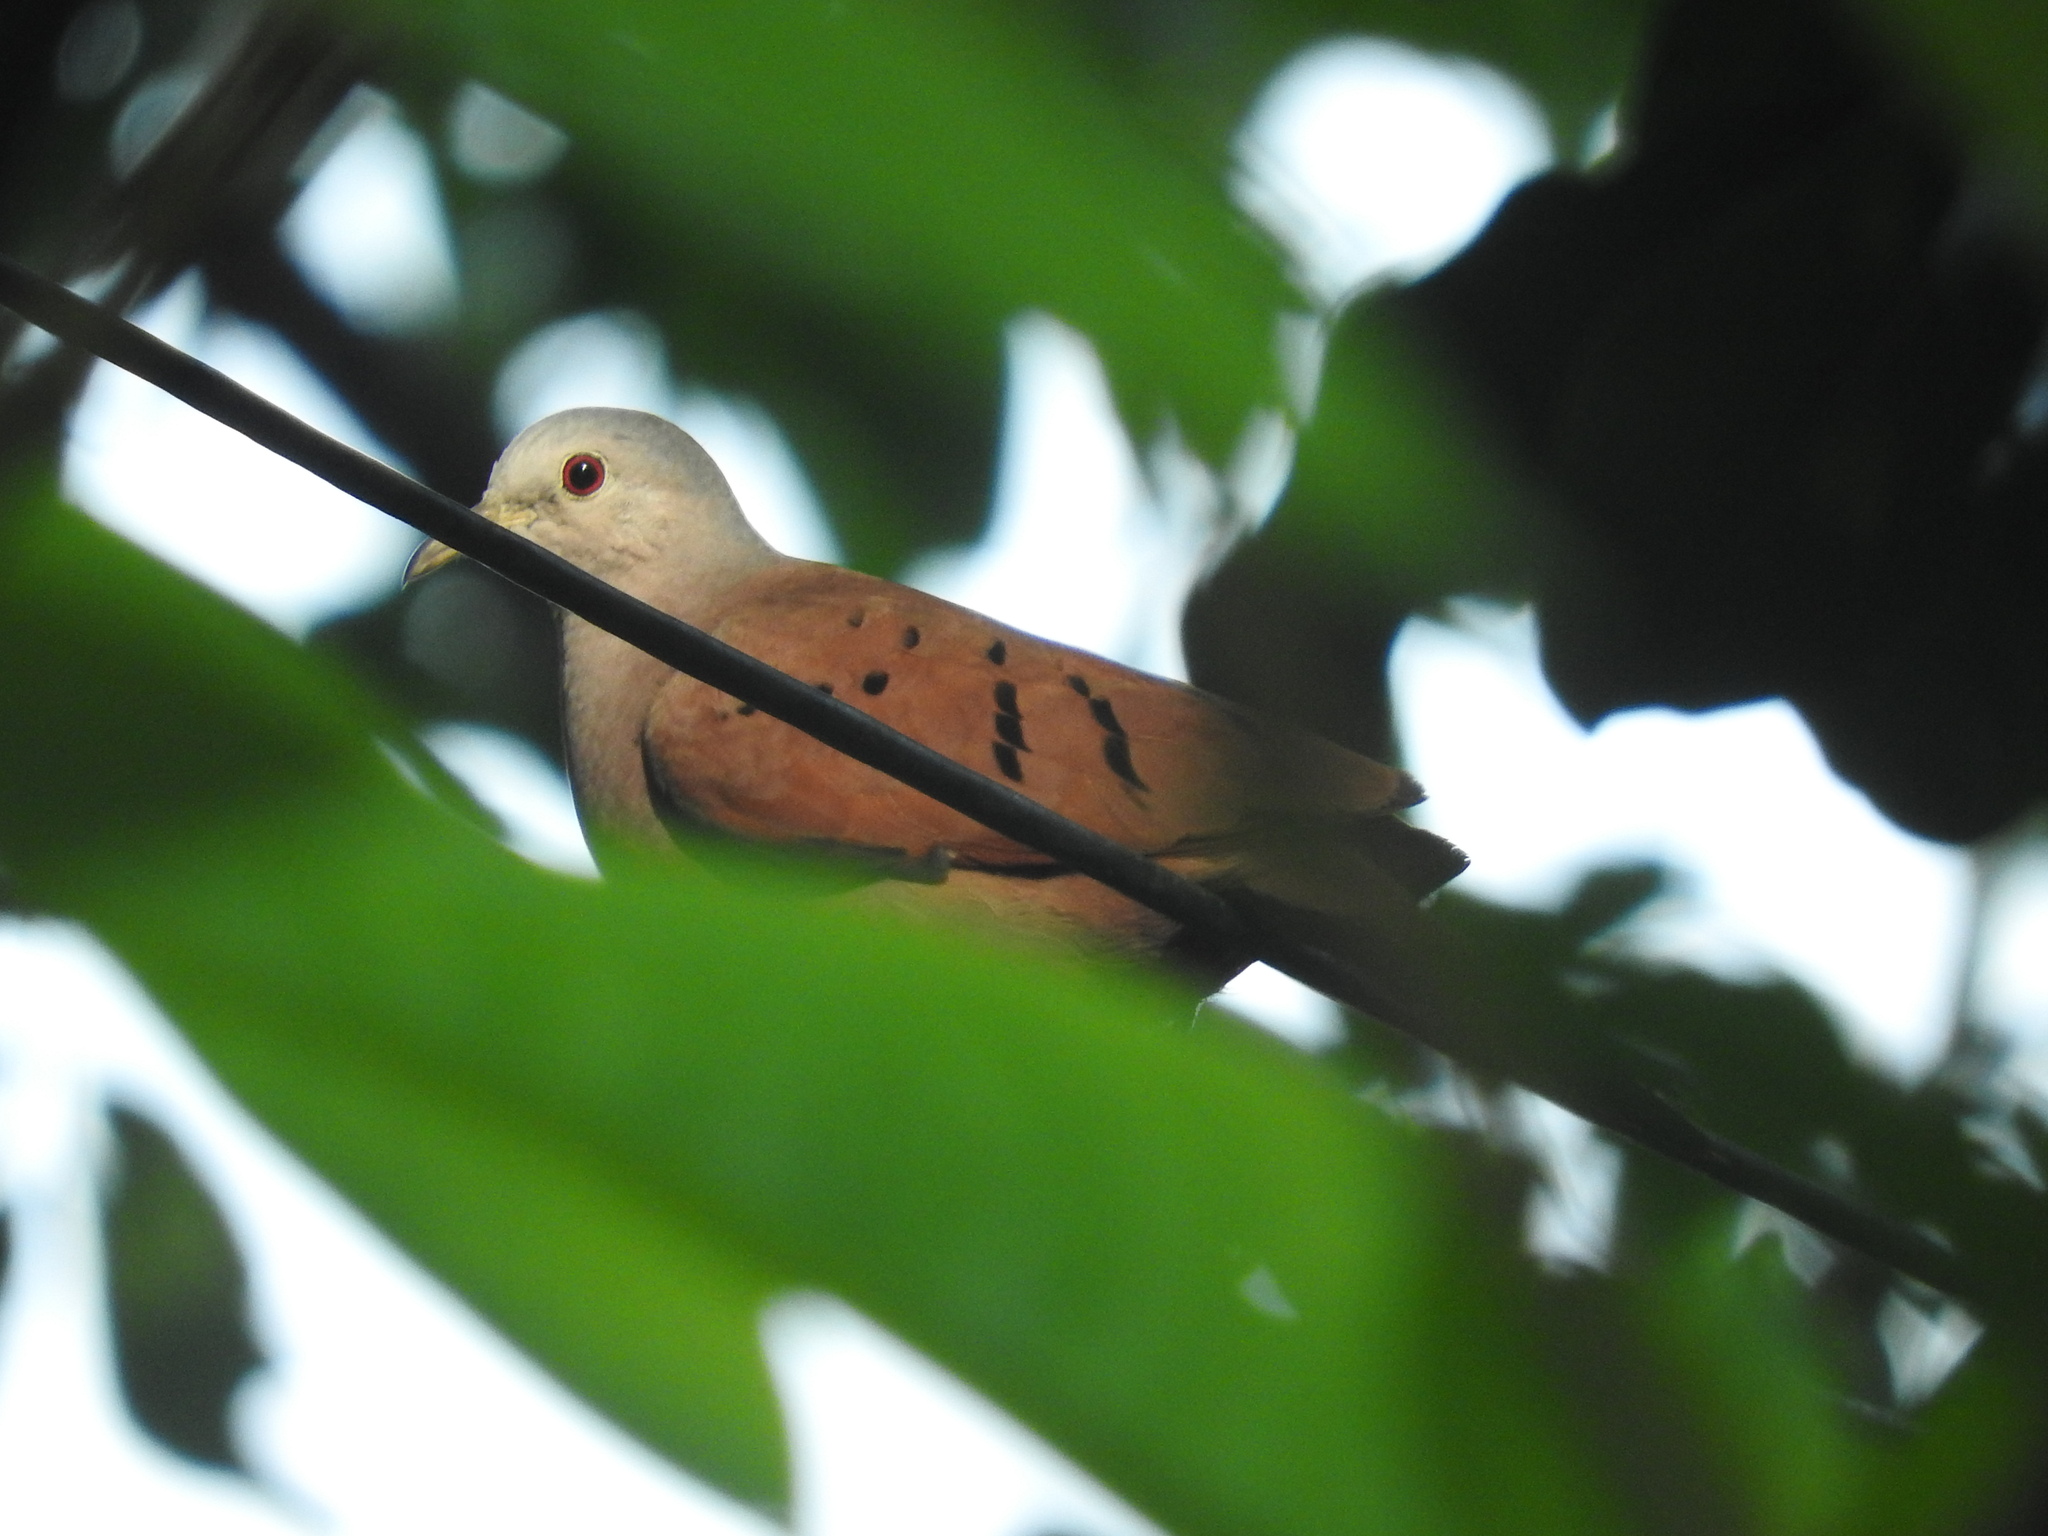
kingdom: Animalia
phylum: Chordata
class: Aves
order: Columbiformes
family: Columbidae
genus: Columbina
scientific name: Columbina talpacoti
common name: Ruddy ground dove
